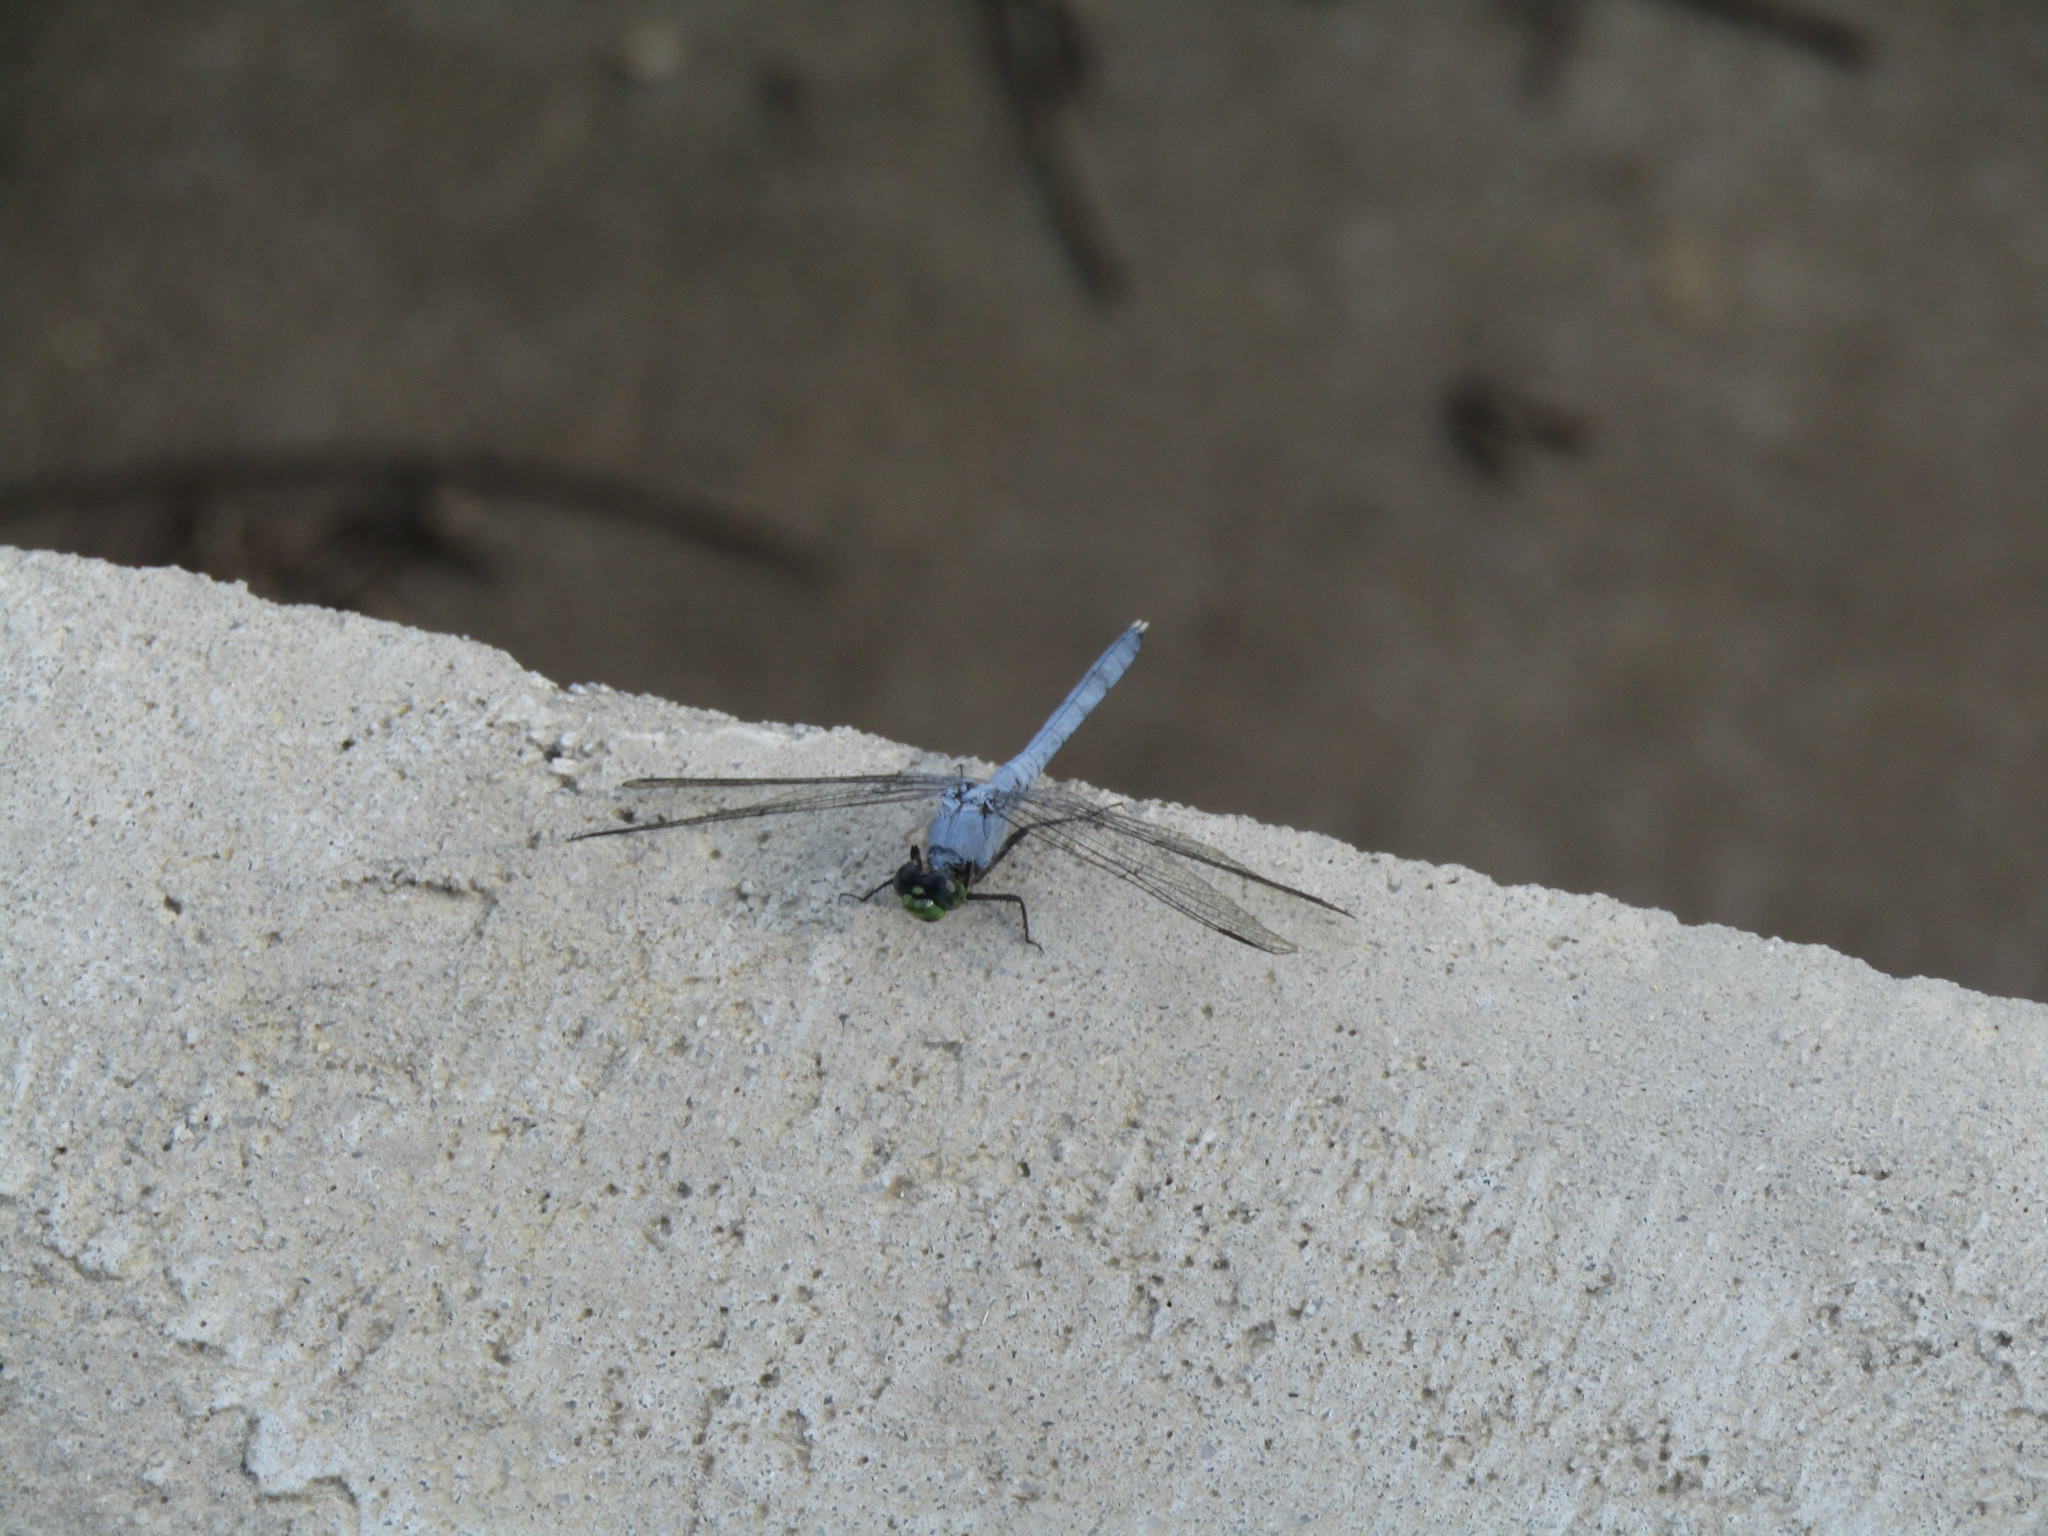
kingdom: Animalia
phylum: Arthropoda
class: Insecta
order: Odonata
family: Libellulidae
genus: Erythemis
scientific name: Erythemis simplicicollis
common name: Eastern pondhawk
